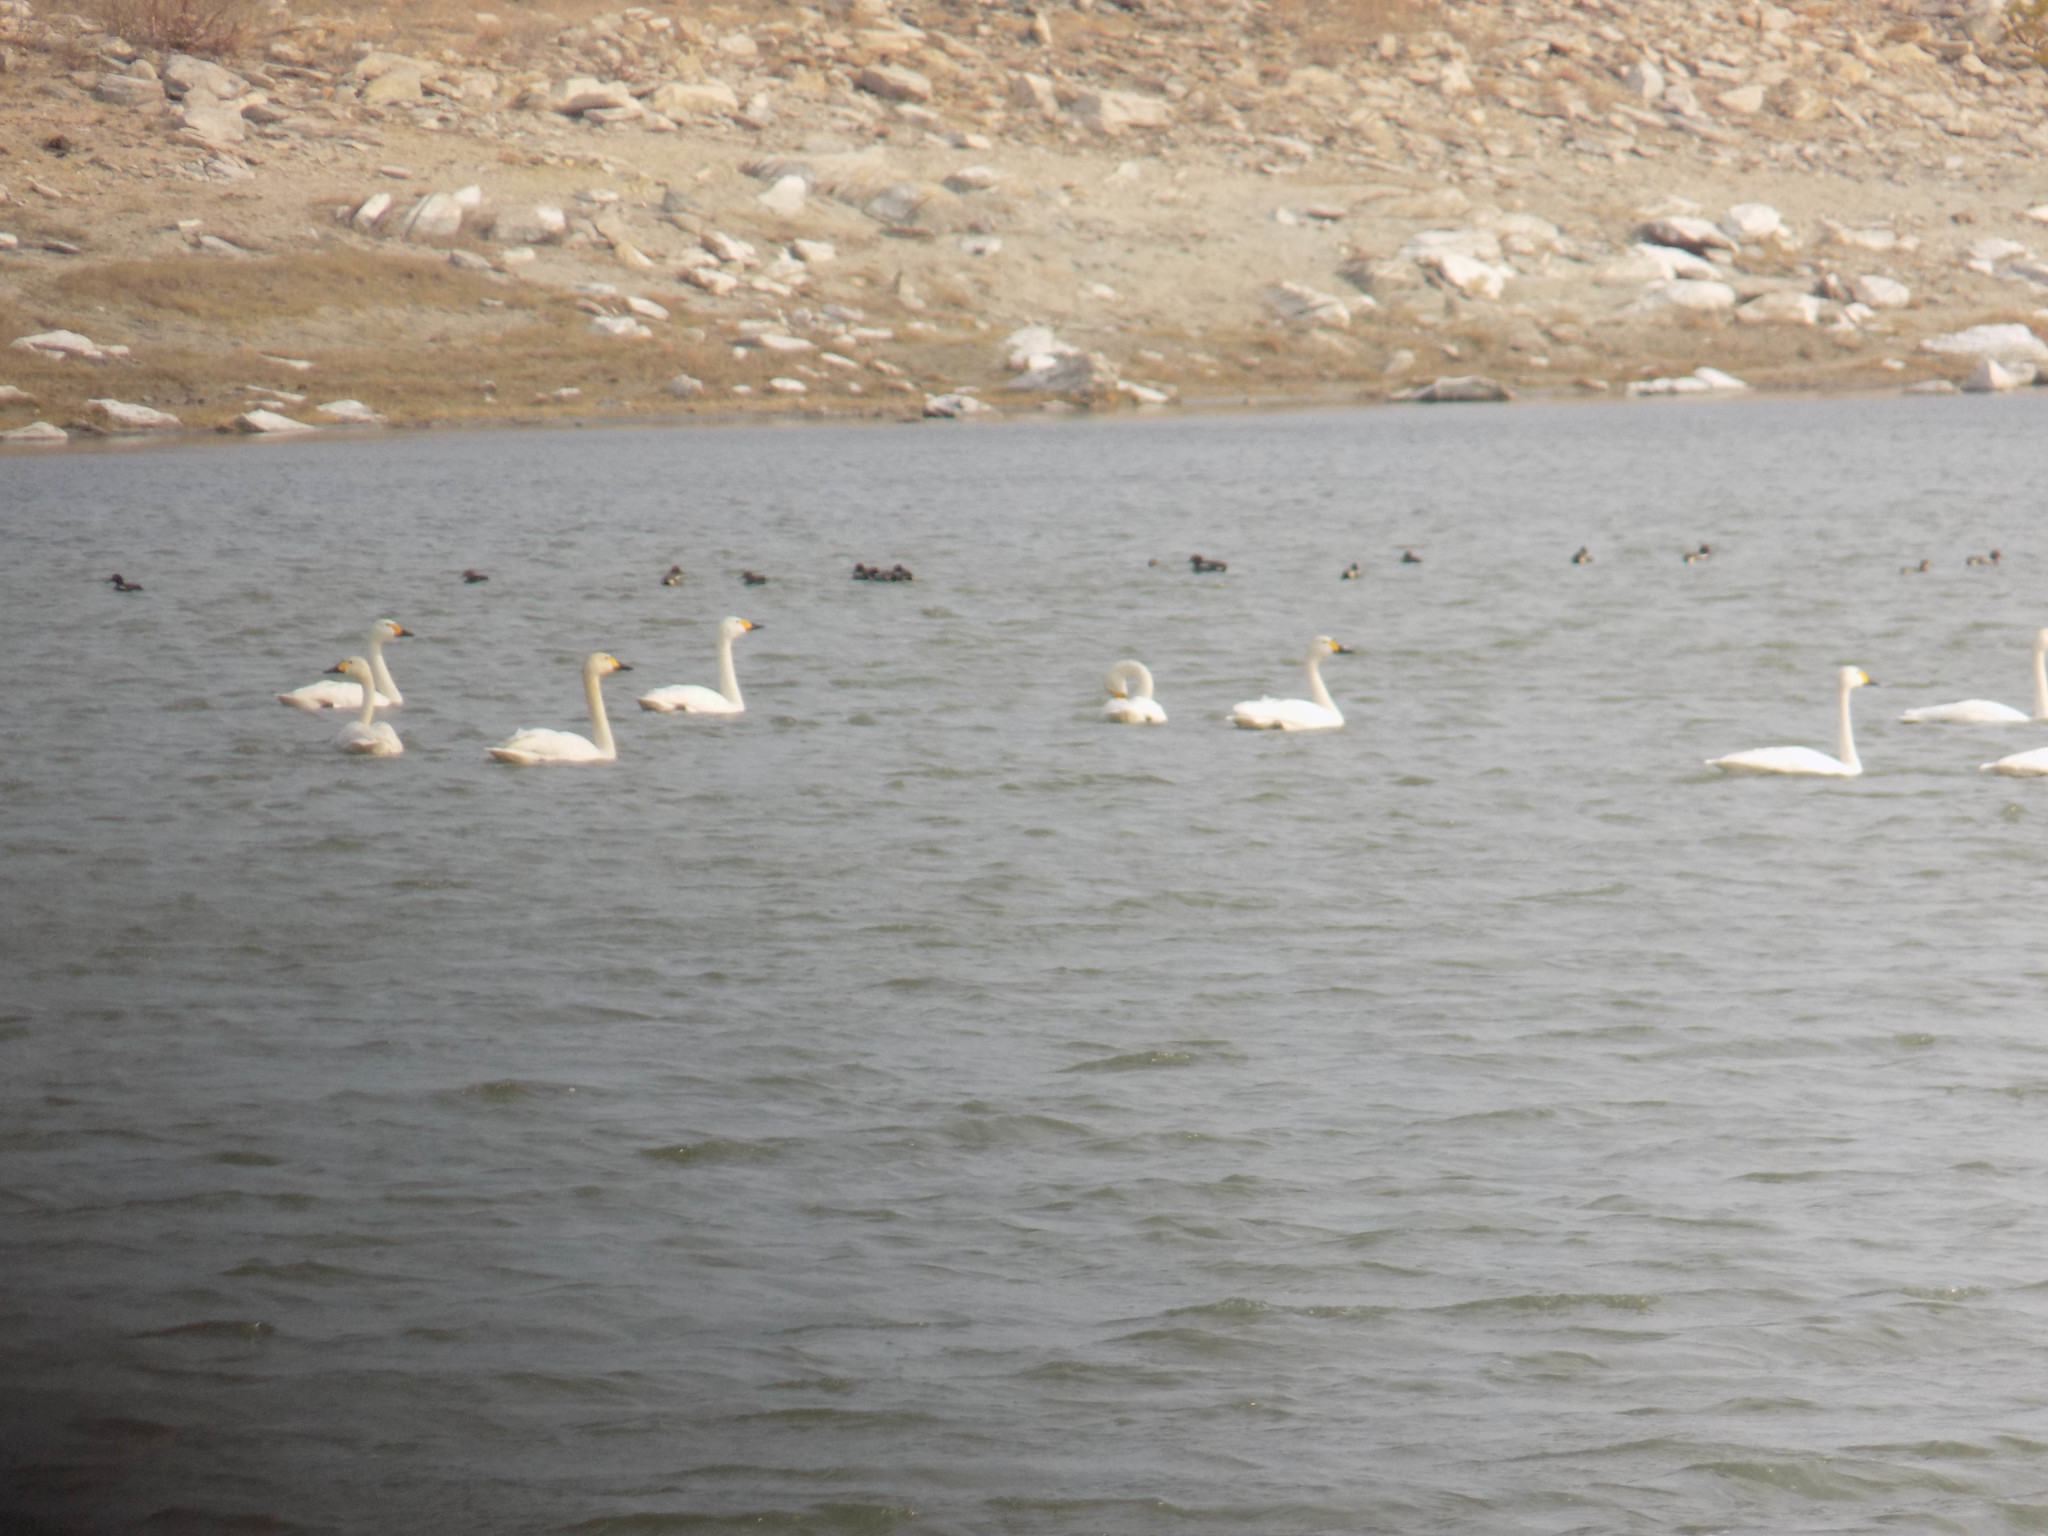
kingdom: Animalia
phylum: Chordata
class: Aves
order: Anseriformes
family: Anatidae
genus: Anas
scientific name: Anas crecca
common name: Eurasian teal
